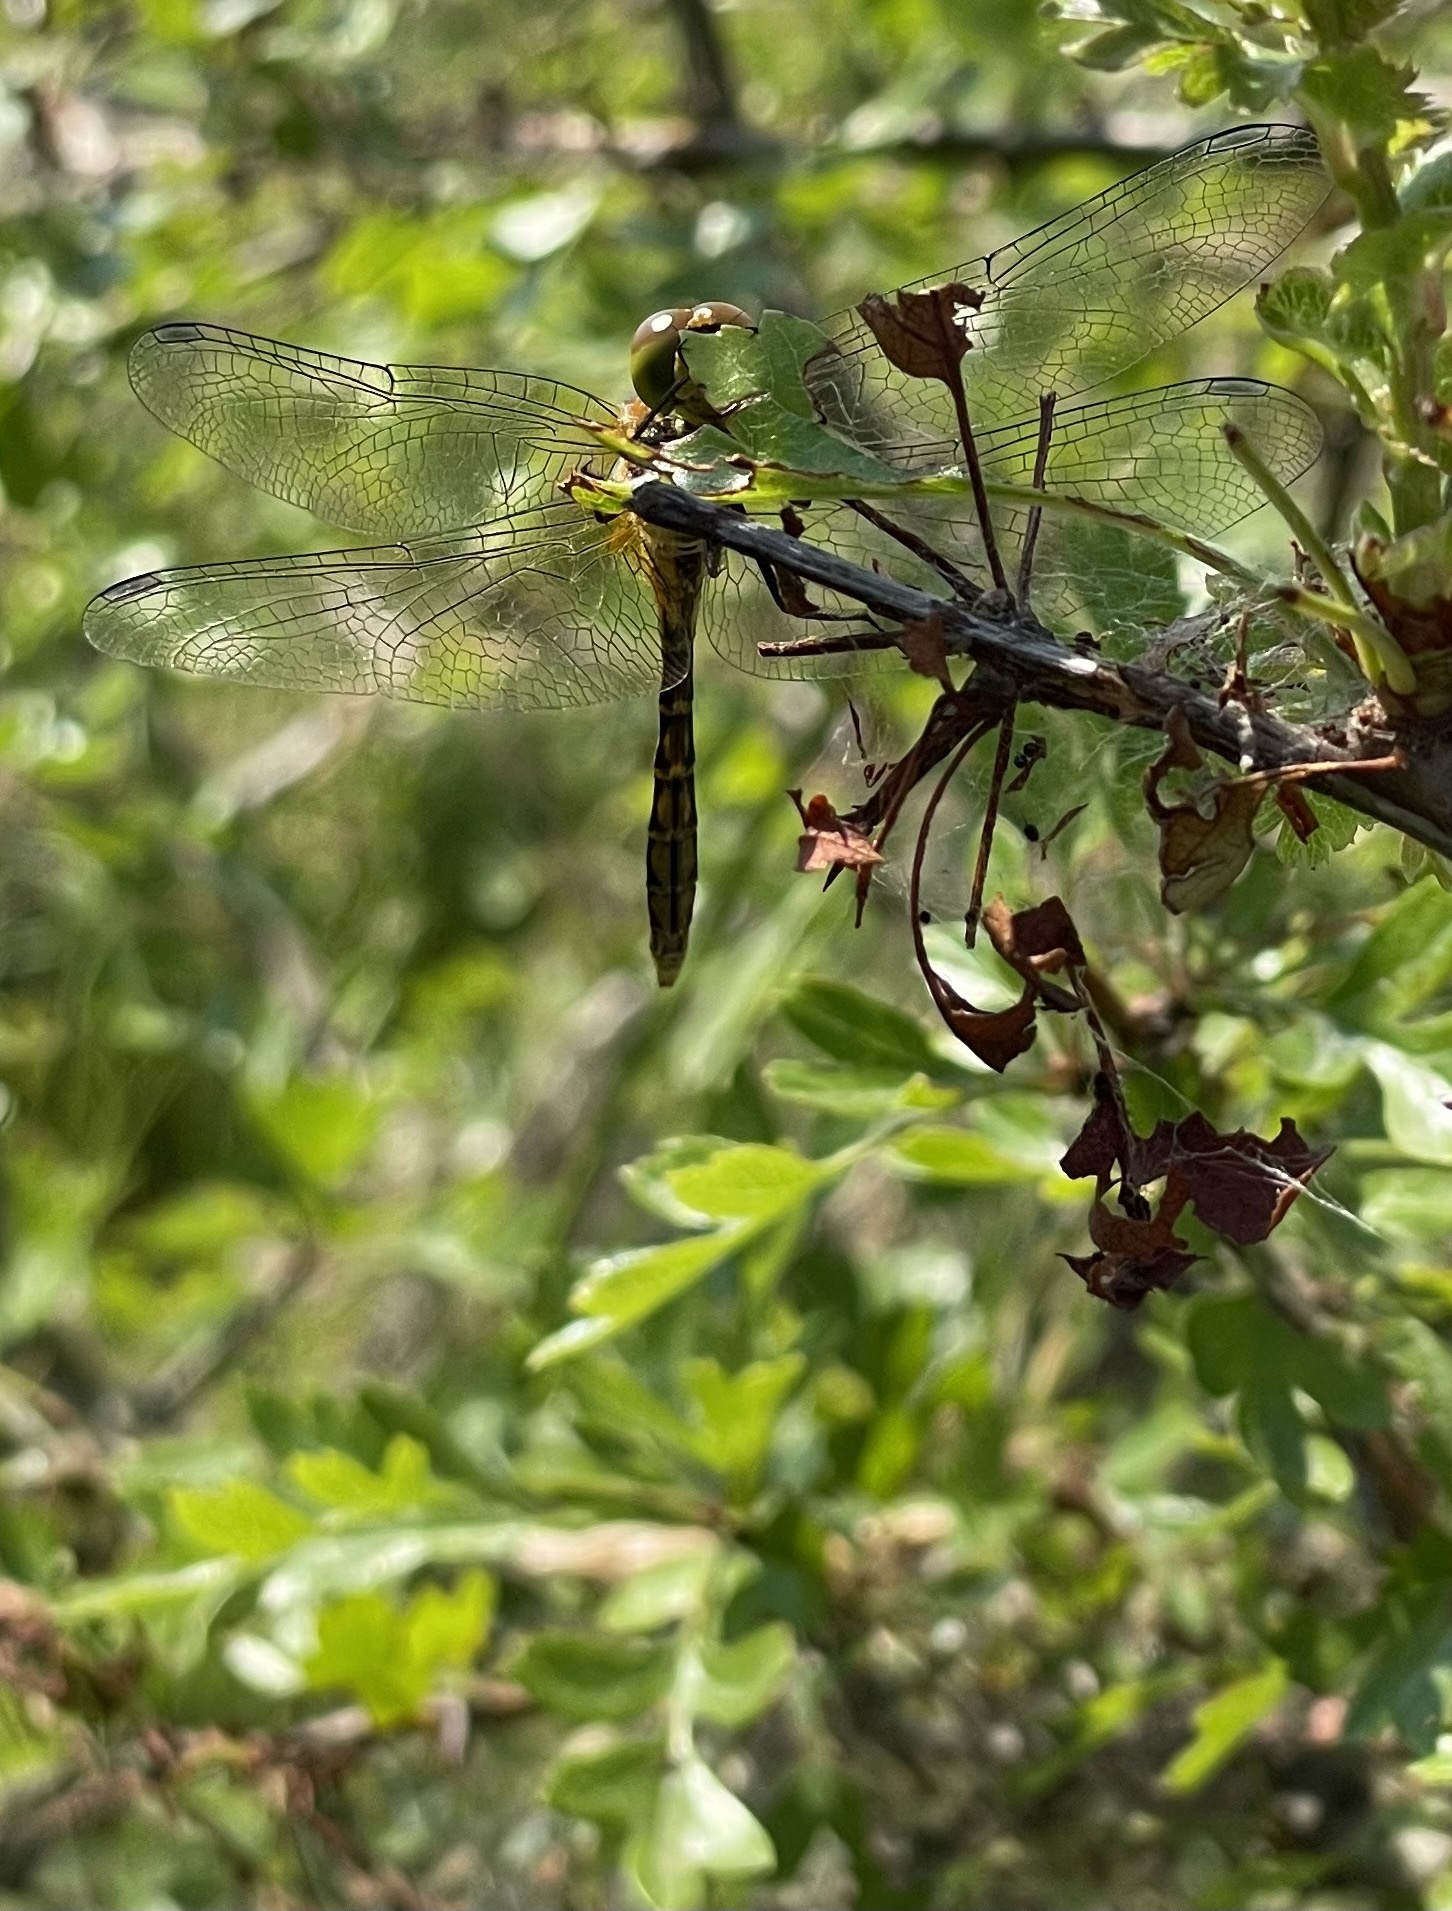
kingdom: Animalia
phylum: Arthropoda
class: Insecta
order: Odonata
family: Libellulidae
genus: Sympetrum
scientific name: Sympetrum sanguineum
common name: Ruddy darter
